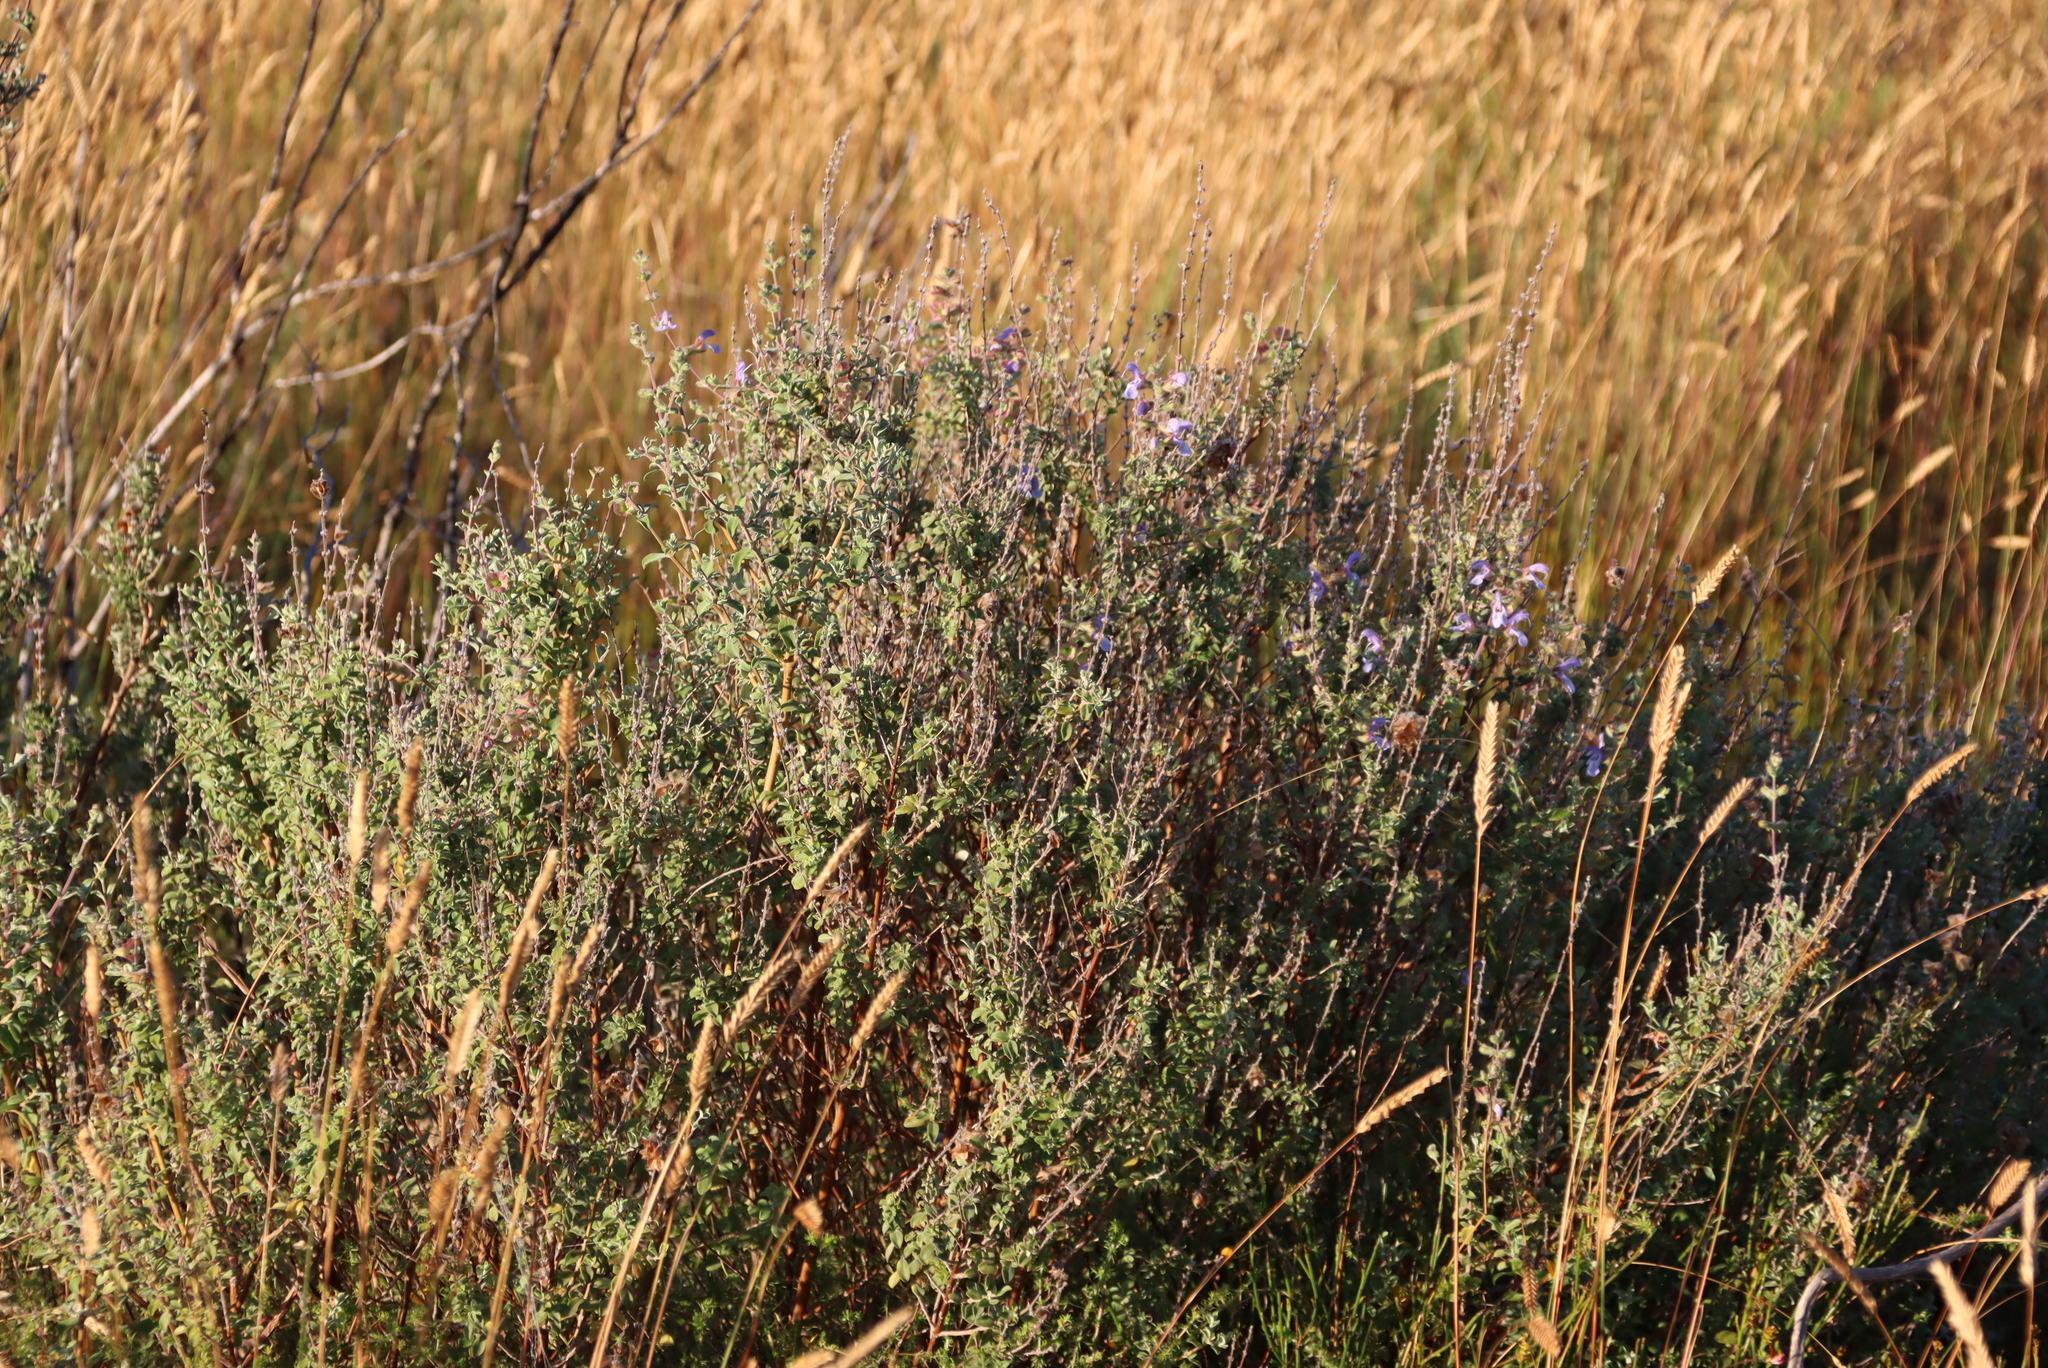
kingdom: Plantae
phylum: Tracheophyta
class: Magnoliopsida
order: Lamiales
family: Lamiaceae
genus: Salvia
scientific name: Salvia africana
